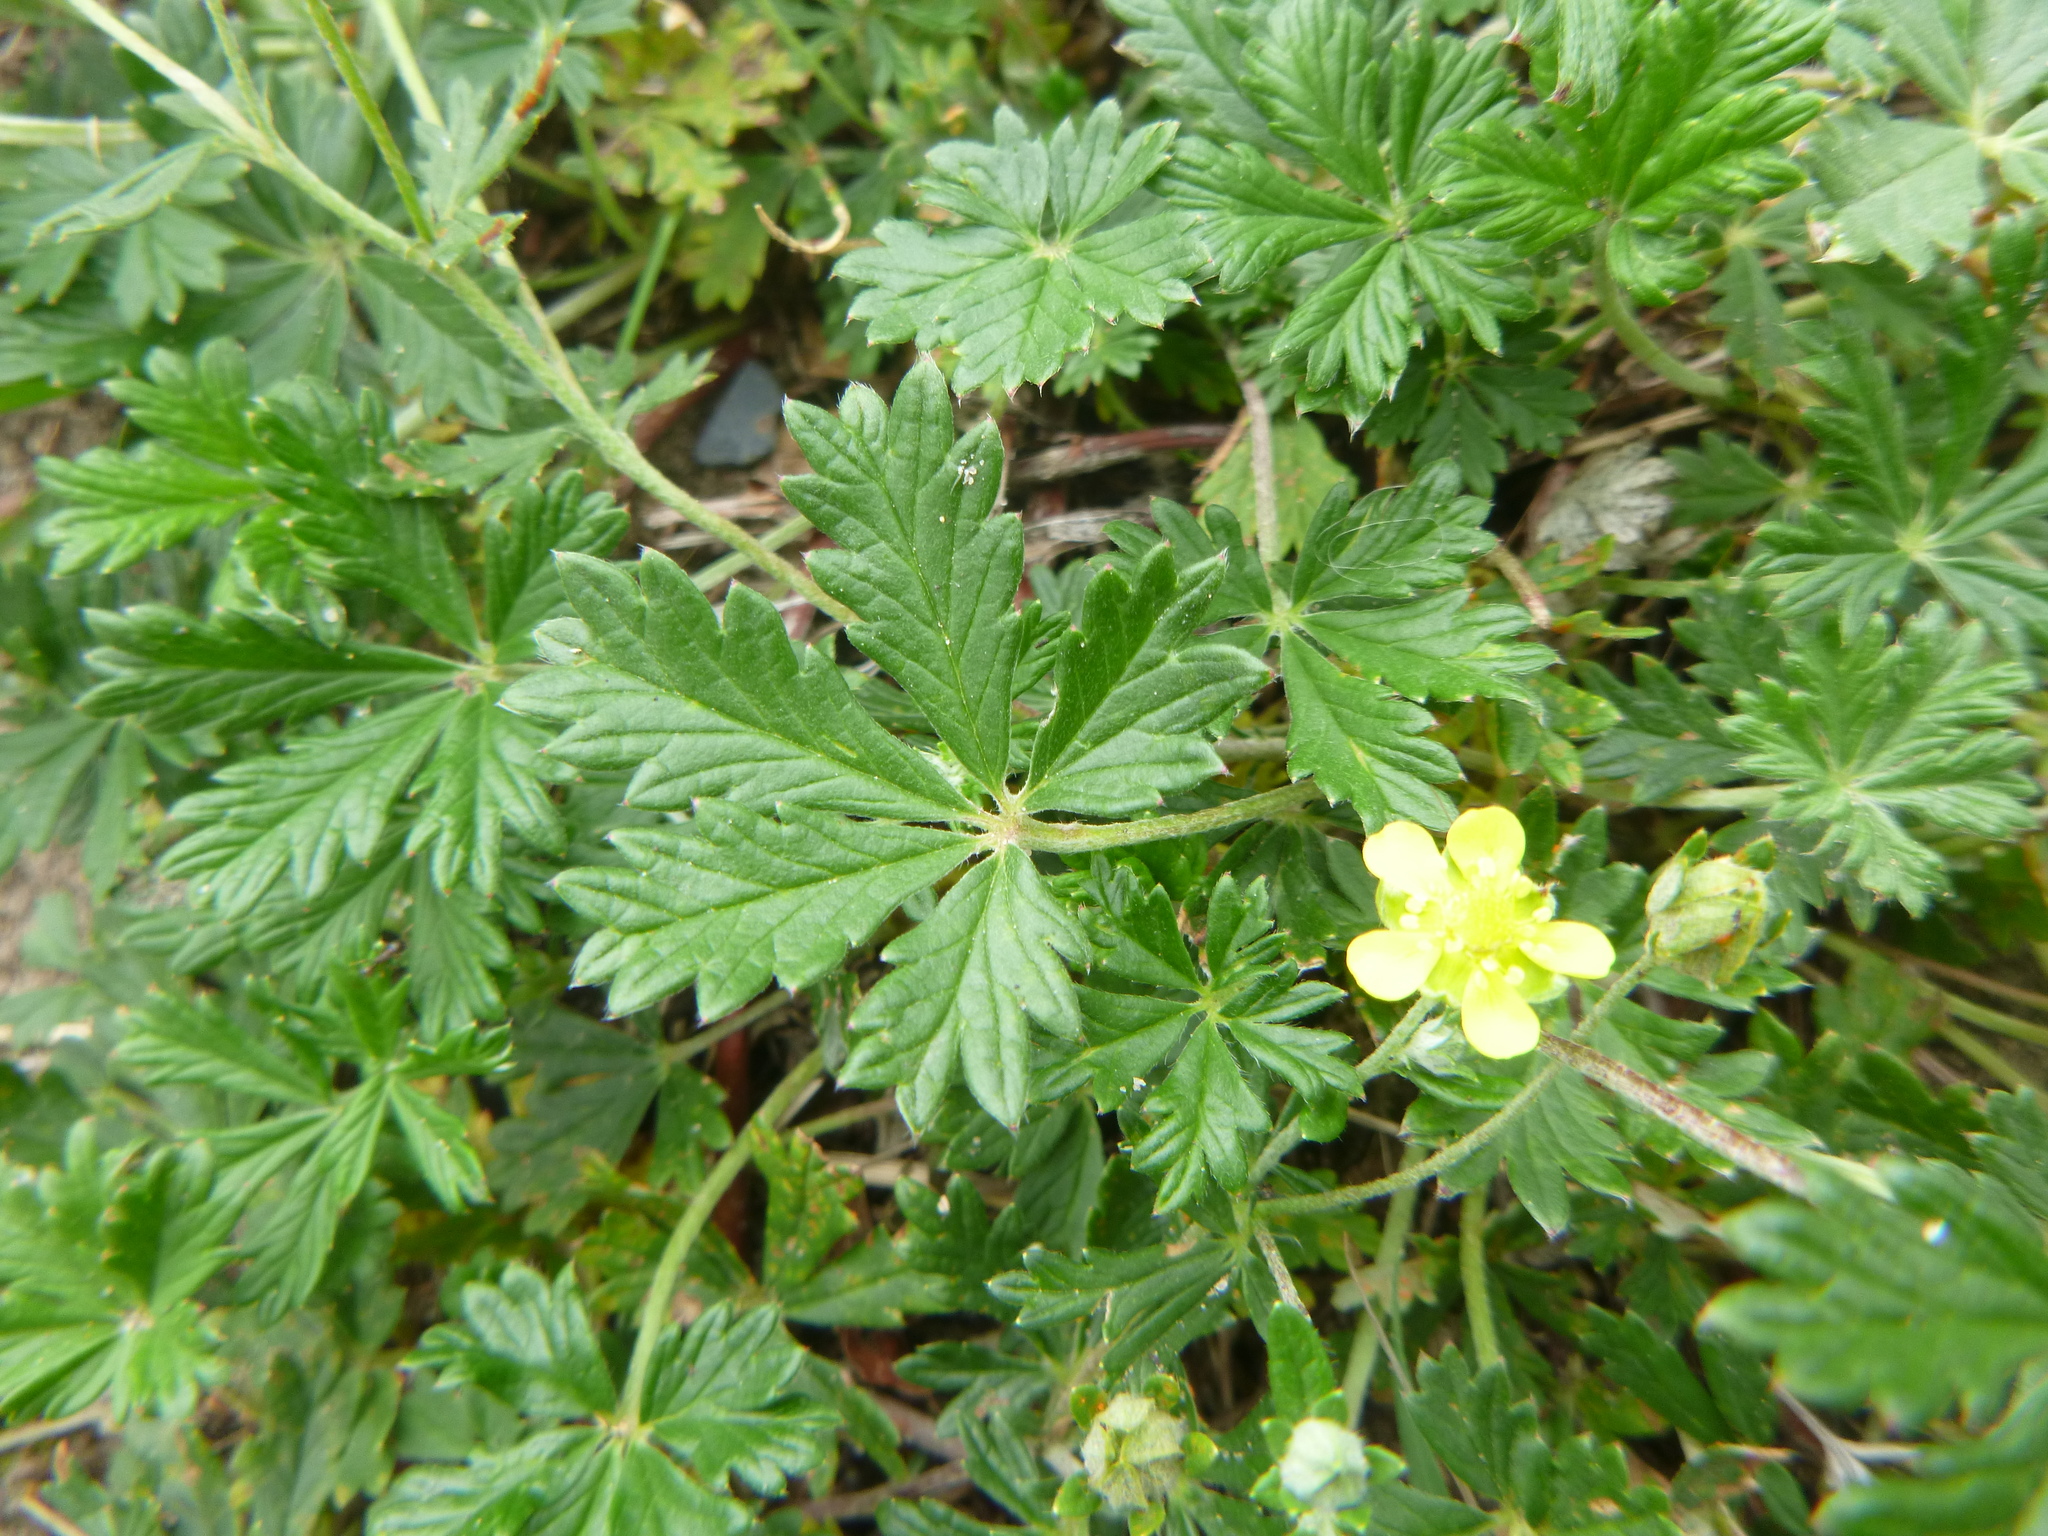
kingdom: Plantae
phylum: Tracheophyta
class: Magnoliopsida
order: Rosales
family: Rosaceae
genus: Potentilla
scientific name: Potentilla argentea
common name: Hoary cinquefoil
